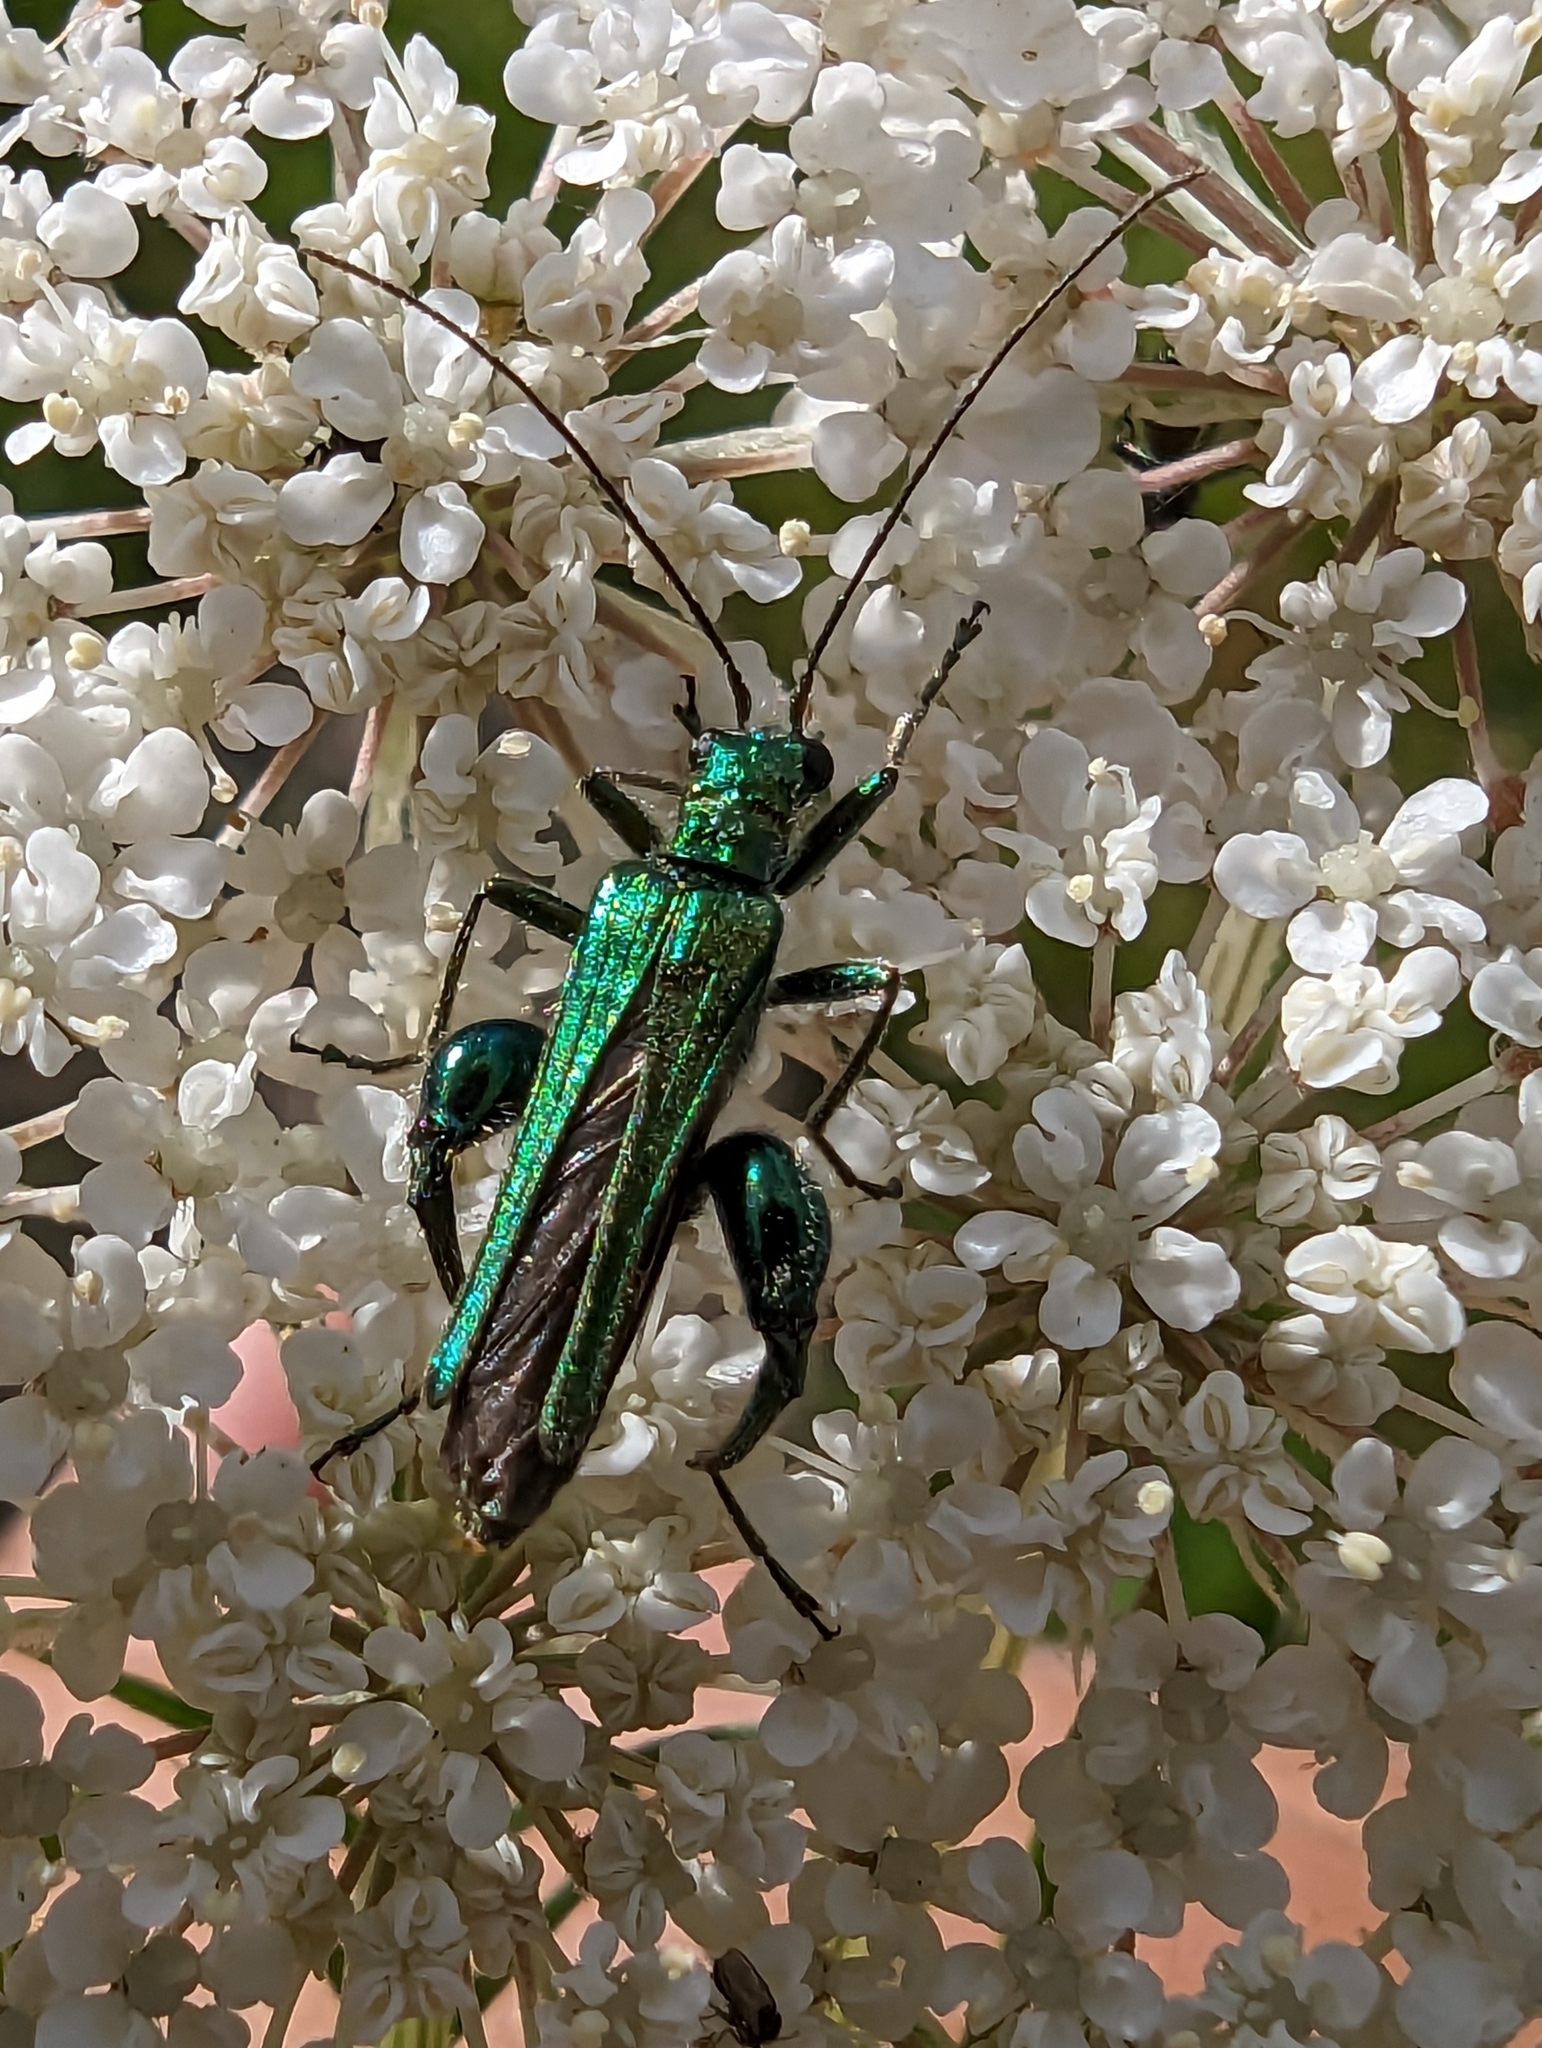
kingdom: Animalia
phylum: Arthropoda
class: Insecta
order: Coleoptera
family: Oedemeridae
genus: Oedemera
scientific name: Oedemera nobilis
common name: Swollen-thighed beetle
